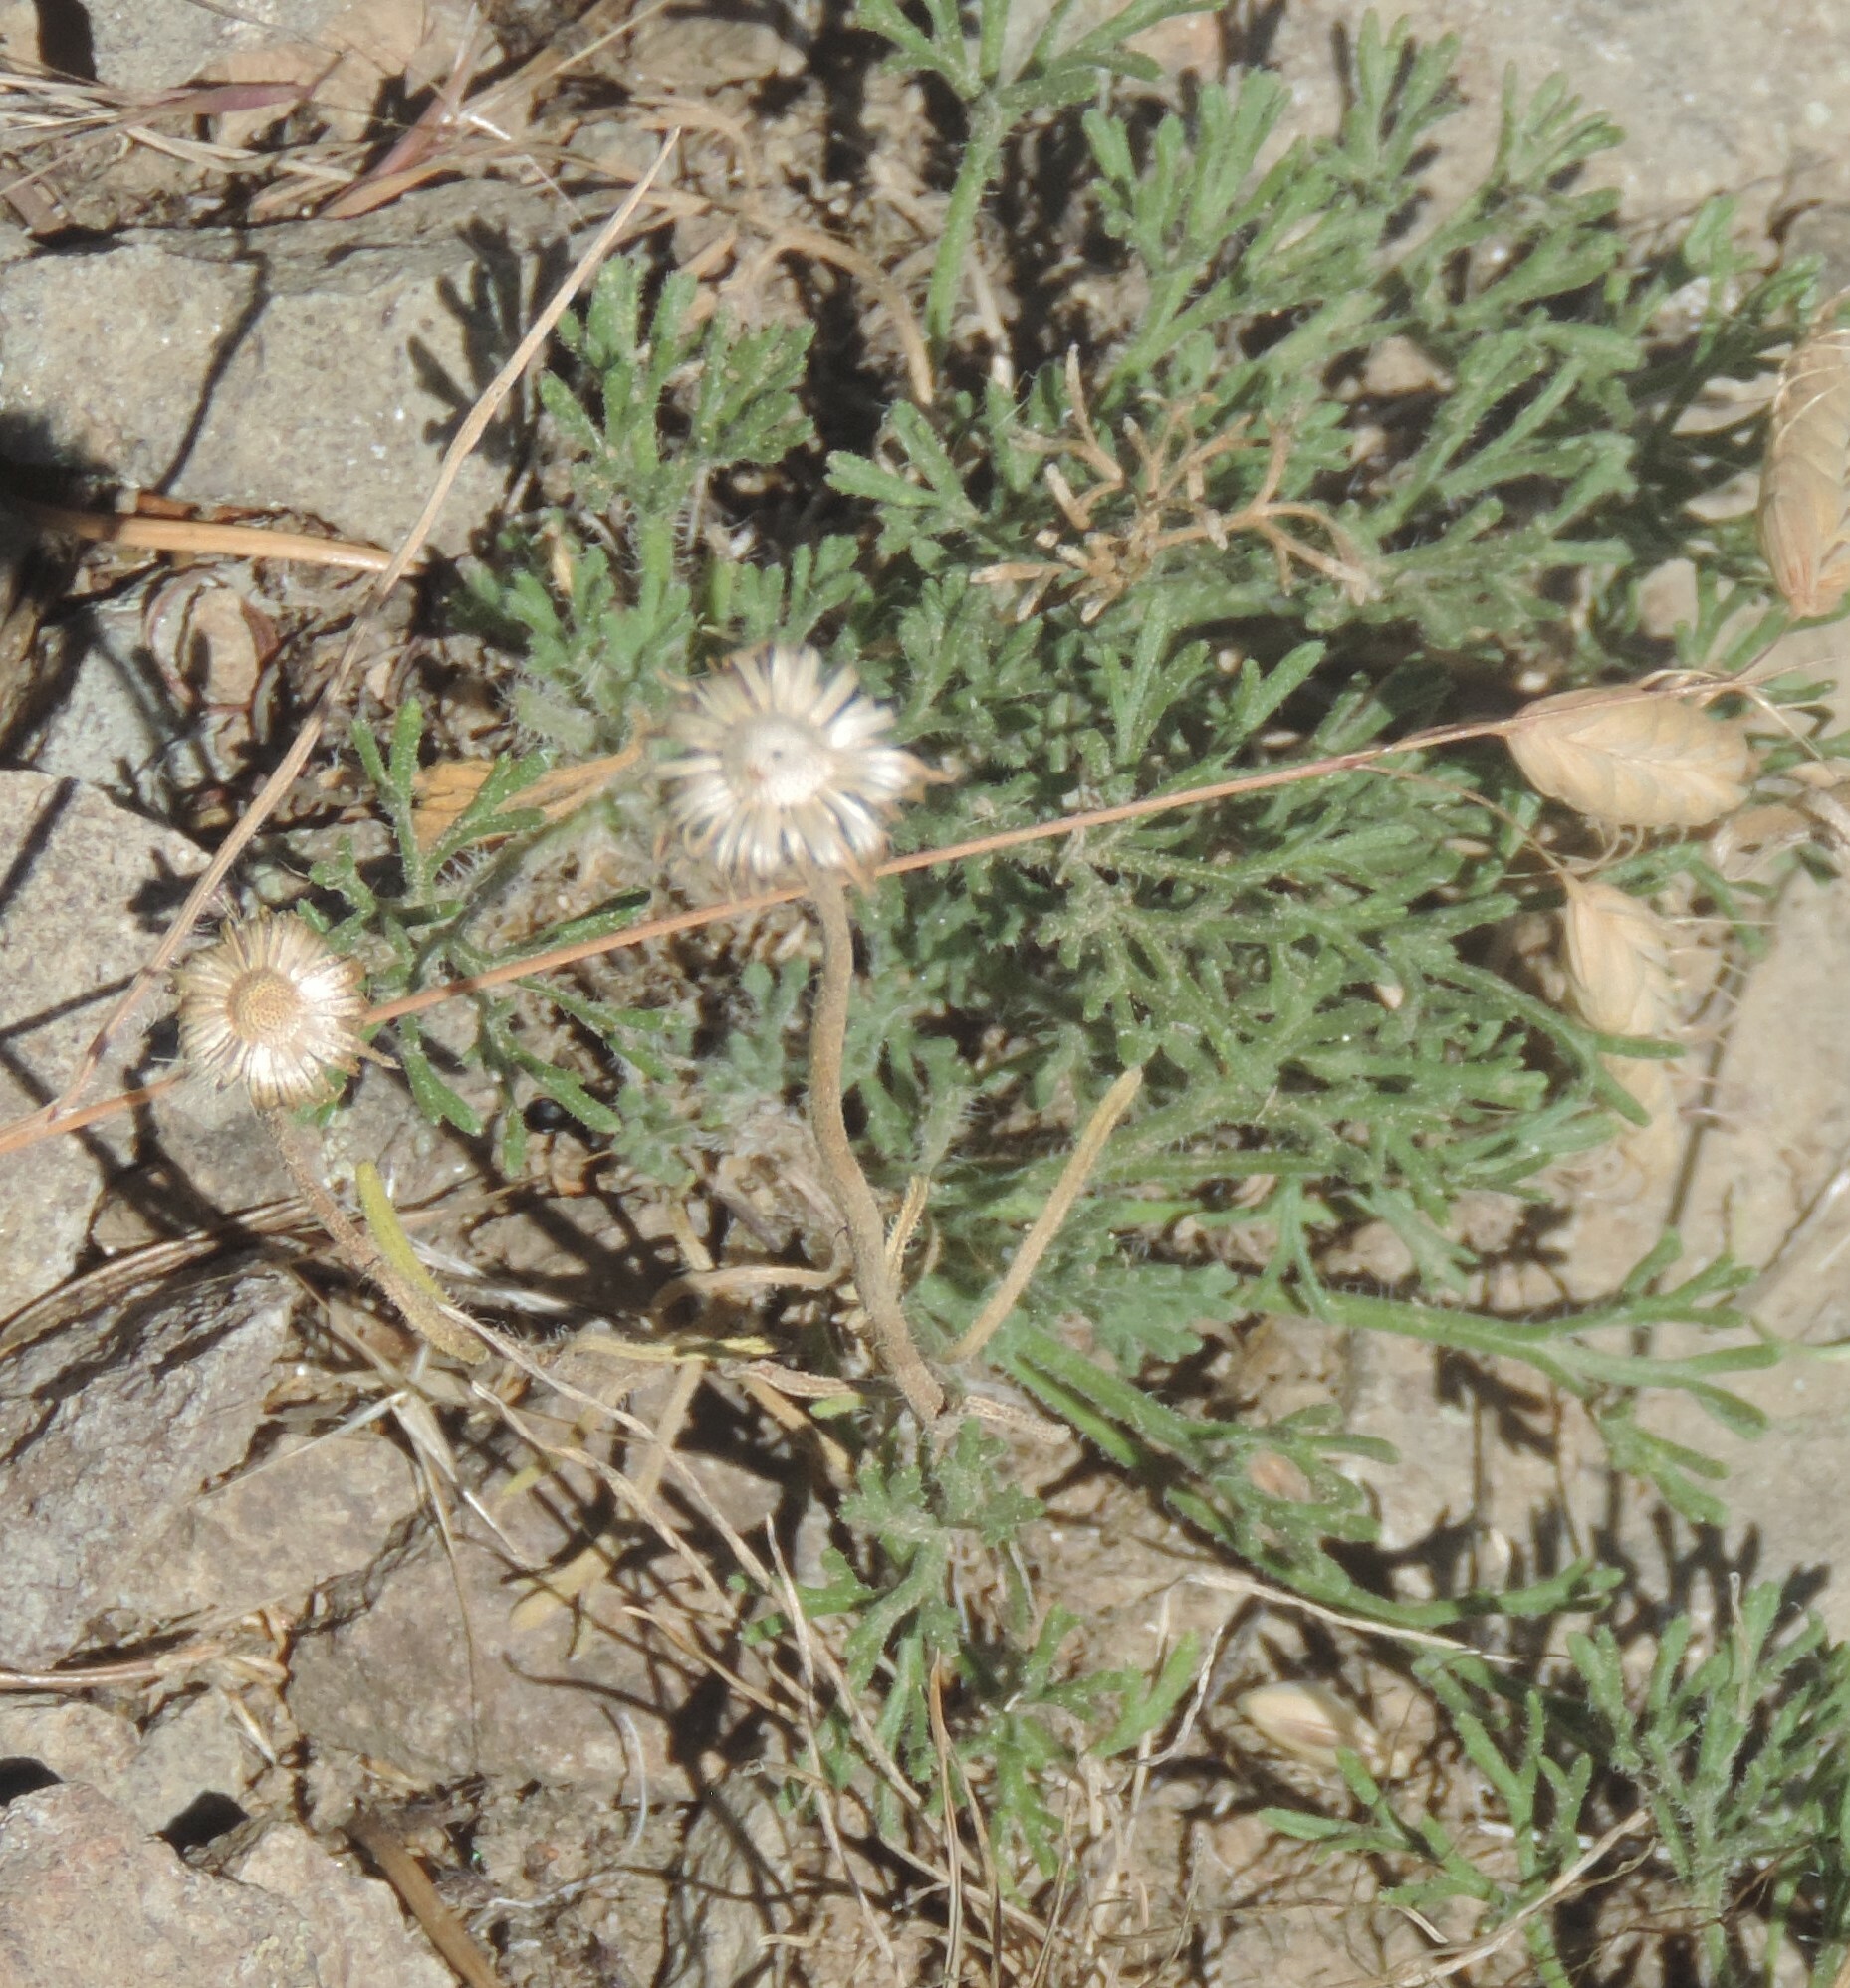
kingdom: Plantae
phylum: Tracheophyta
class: Magnoliopsida
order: Asterales
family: Asteraceae
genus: Erigeron
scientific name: Erigeron compositus
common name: Dwarf mountain fleabane
